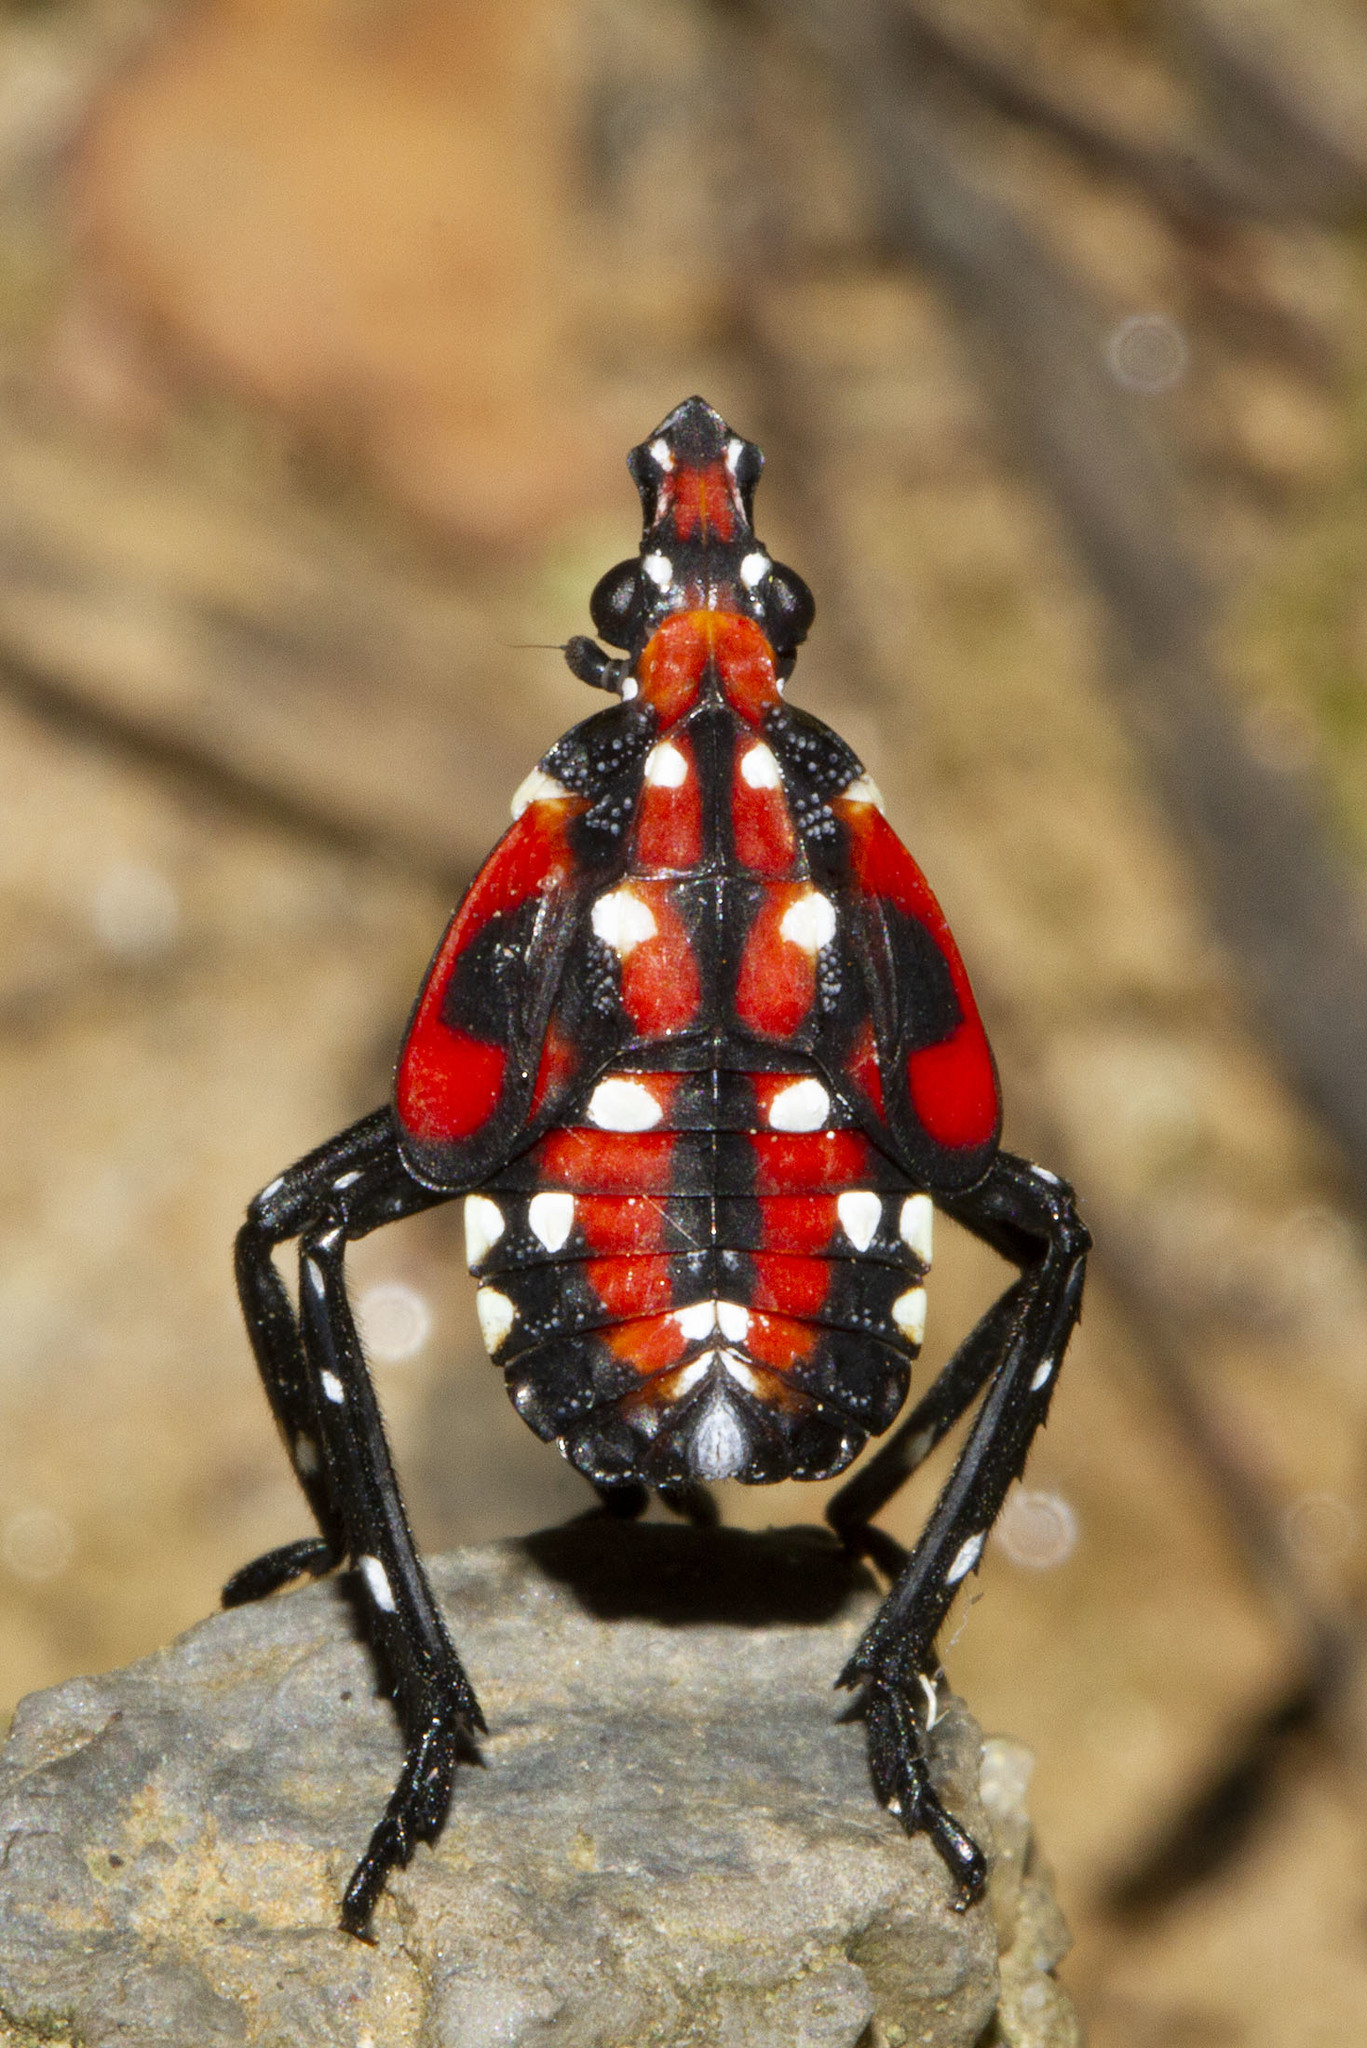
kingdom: Animalia
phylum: Arthropoda
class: Insecta
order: Hemiptera
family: Fulgoridae
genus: Lycorma
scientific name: Lycorma delicatula
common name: Spotted lanternfly
